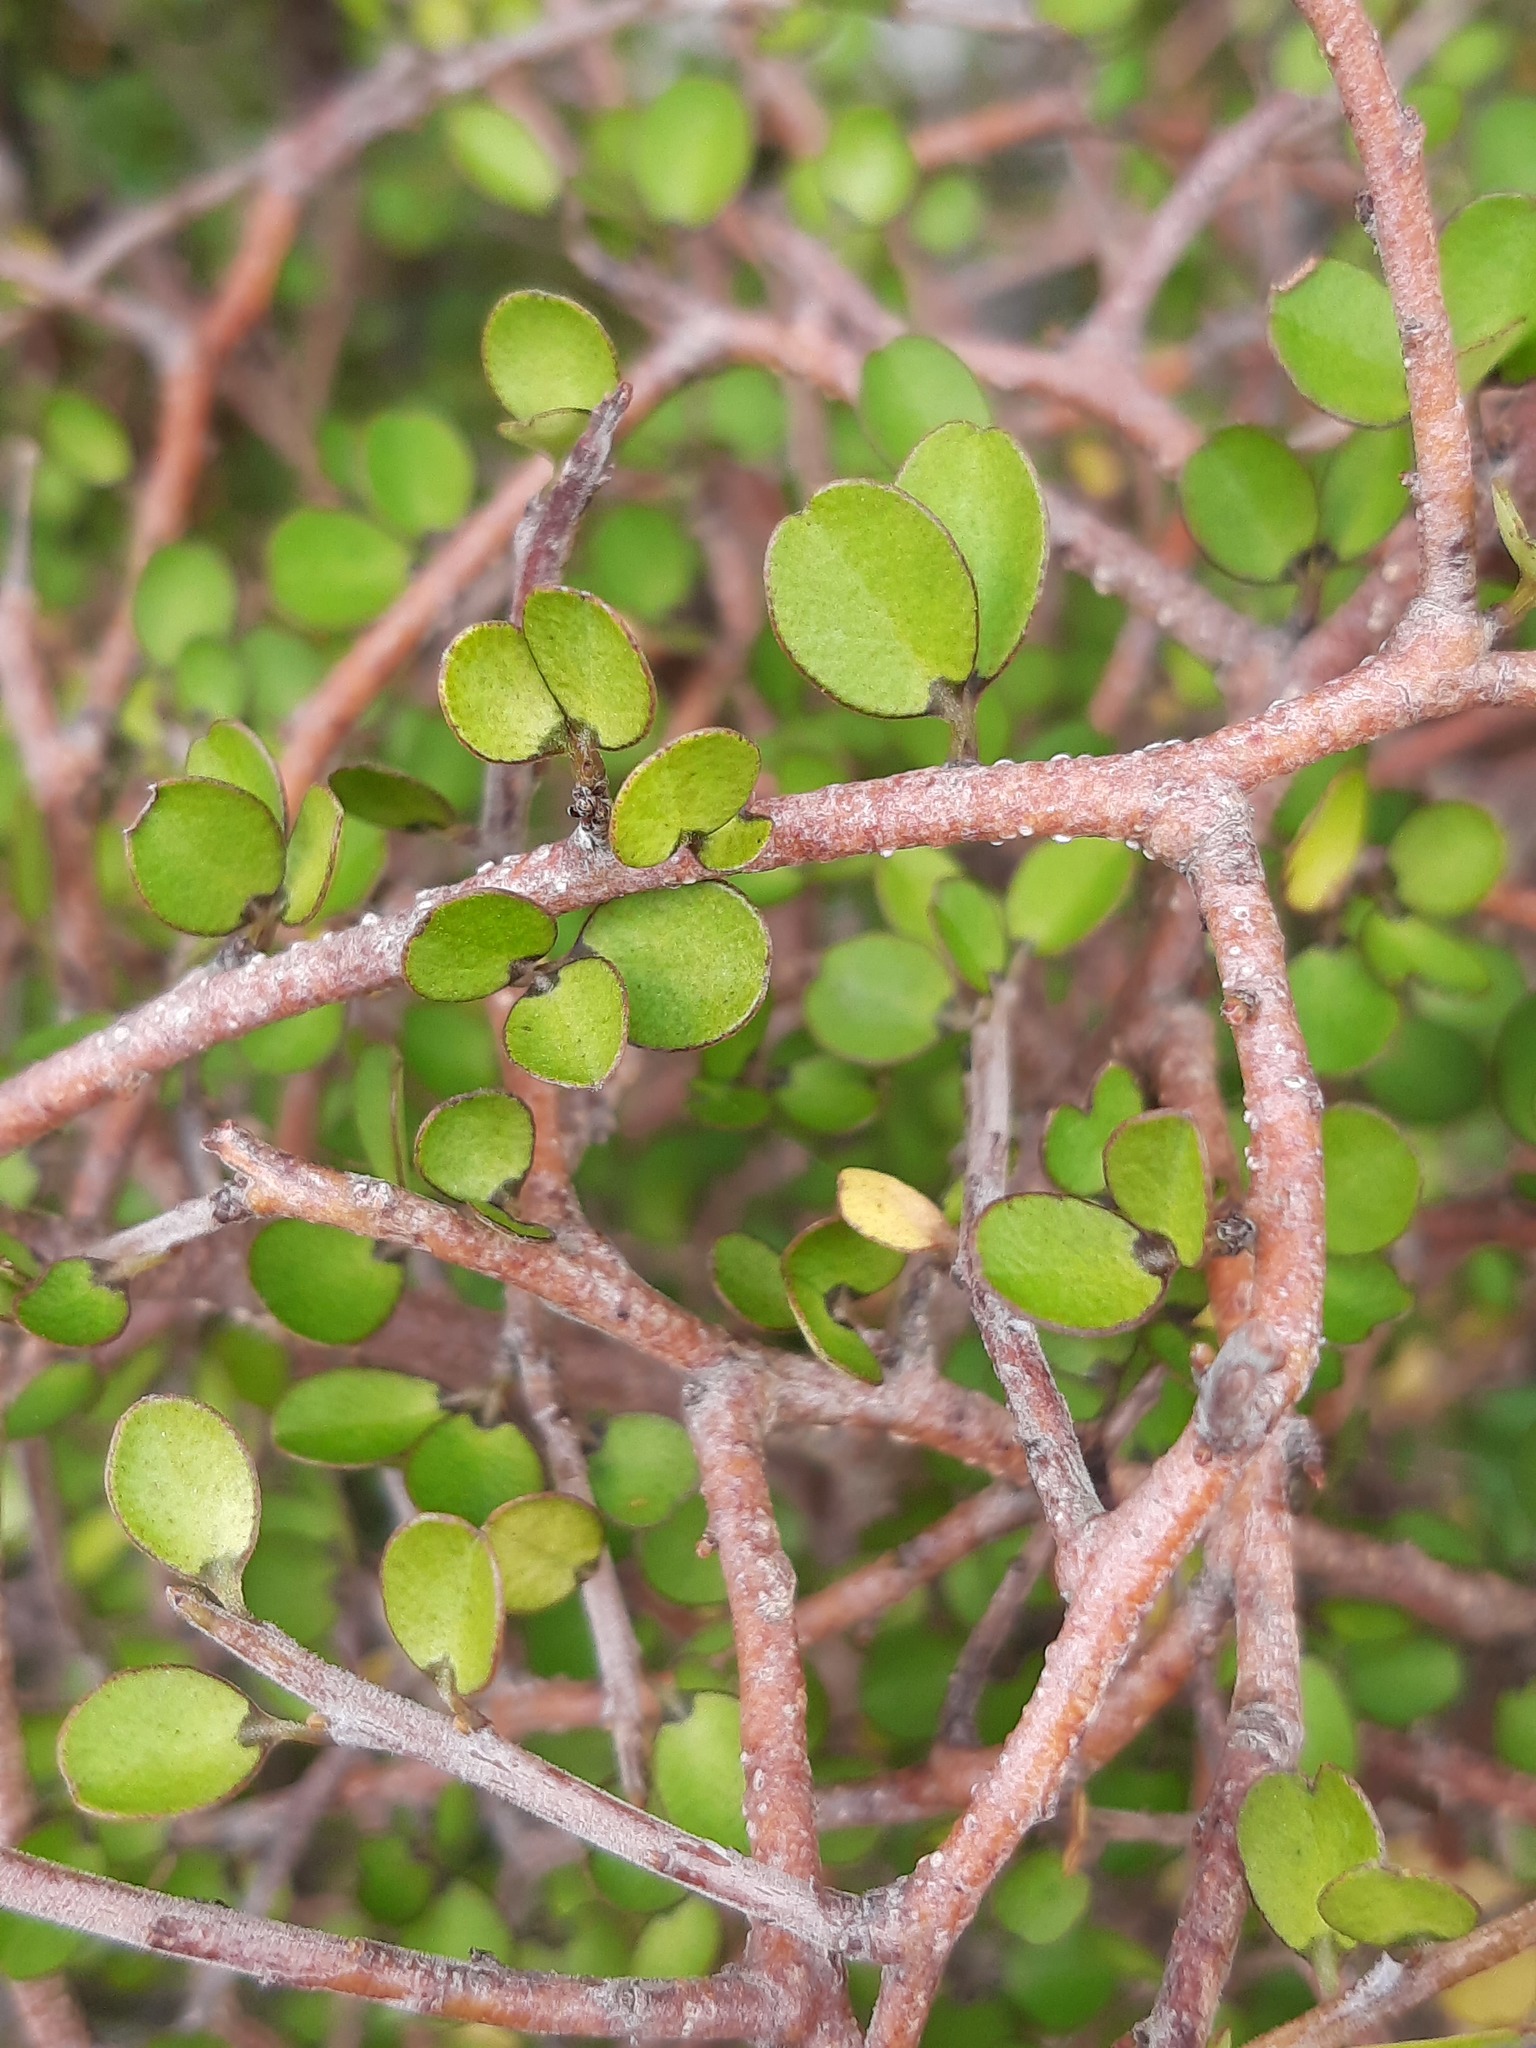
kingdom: Plantae
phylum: Tracheophyta
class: Magnoliopsida
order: Ericales
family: Primulaceae
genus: Myrsine
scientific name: Myrsine divaricata
